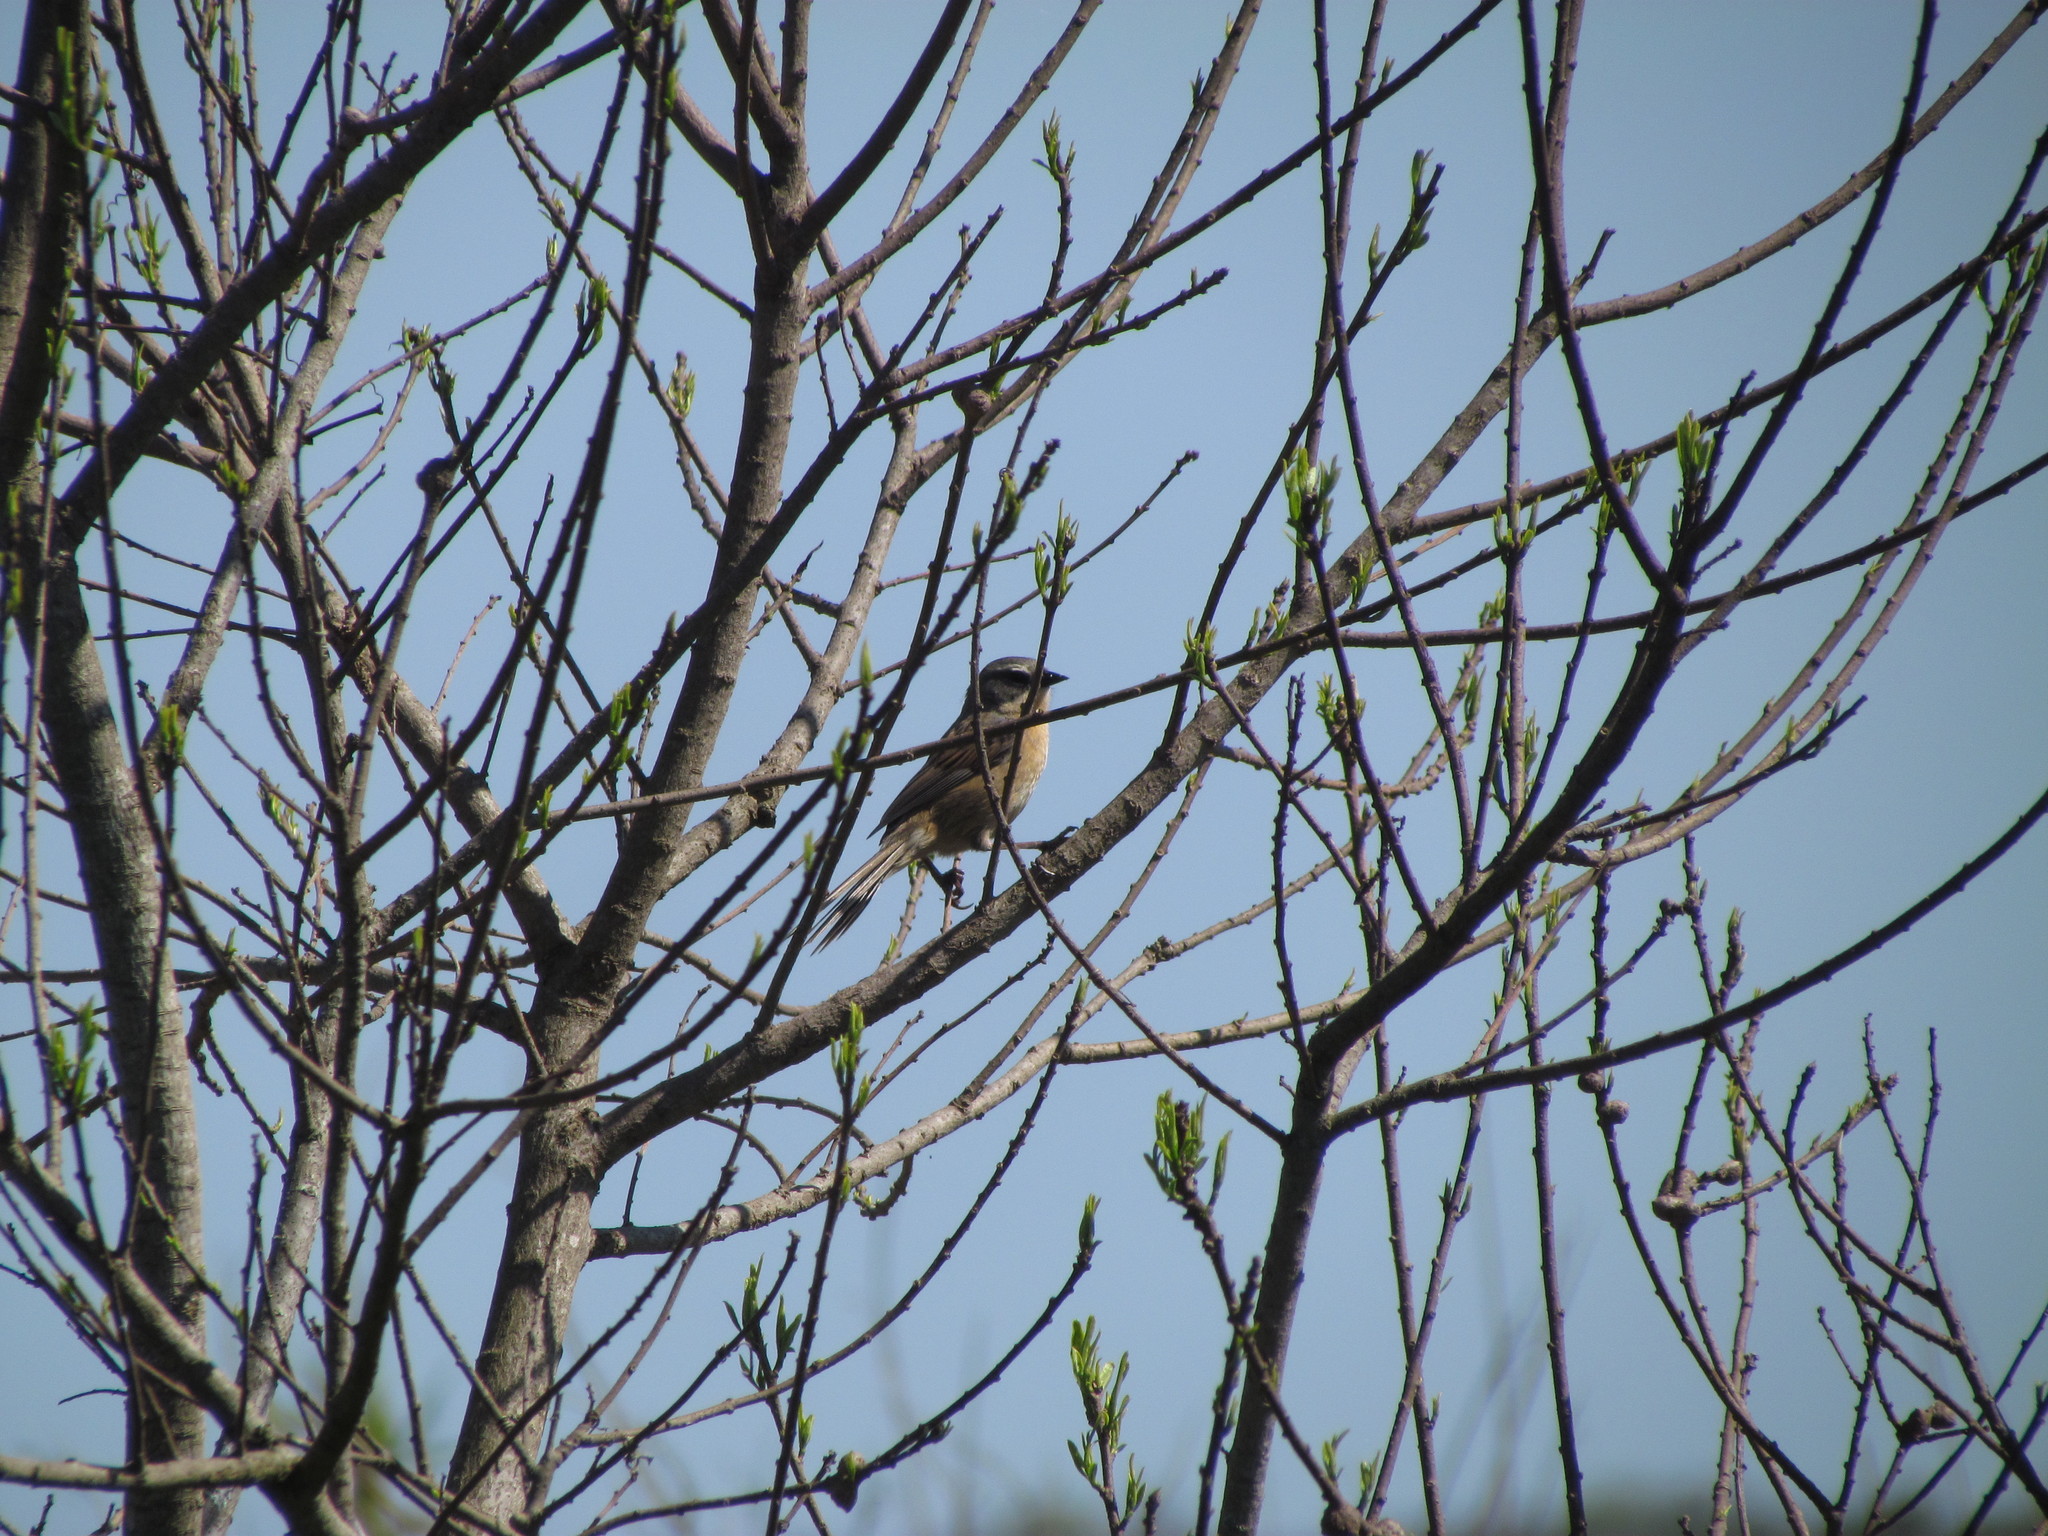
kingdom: Animalia
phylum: Chordata
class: Aves
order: Passeriformes
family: Thraupidae
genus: Donacospiza
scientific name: Donacospiza albifrons
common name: Long-tailed reed finch
